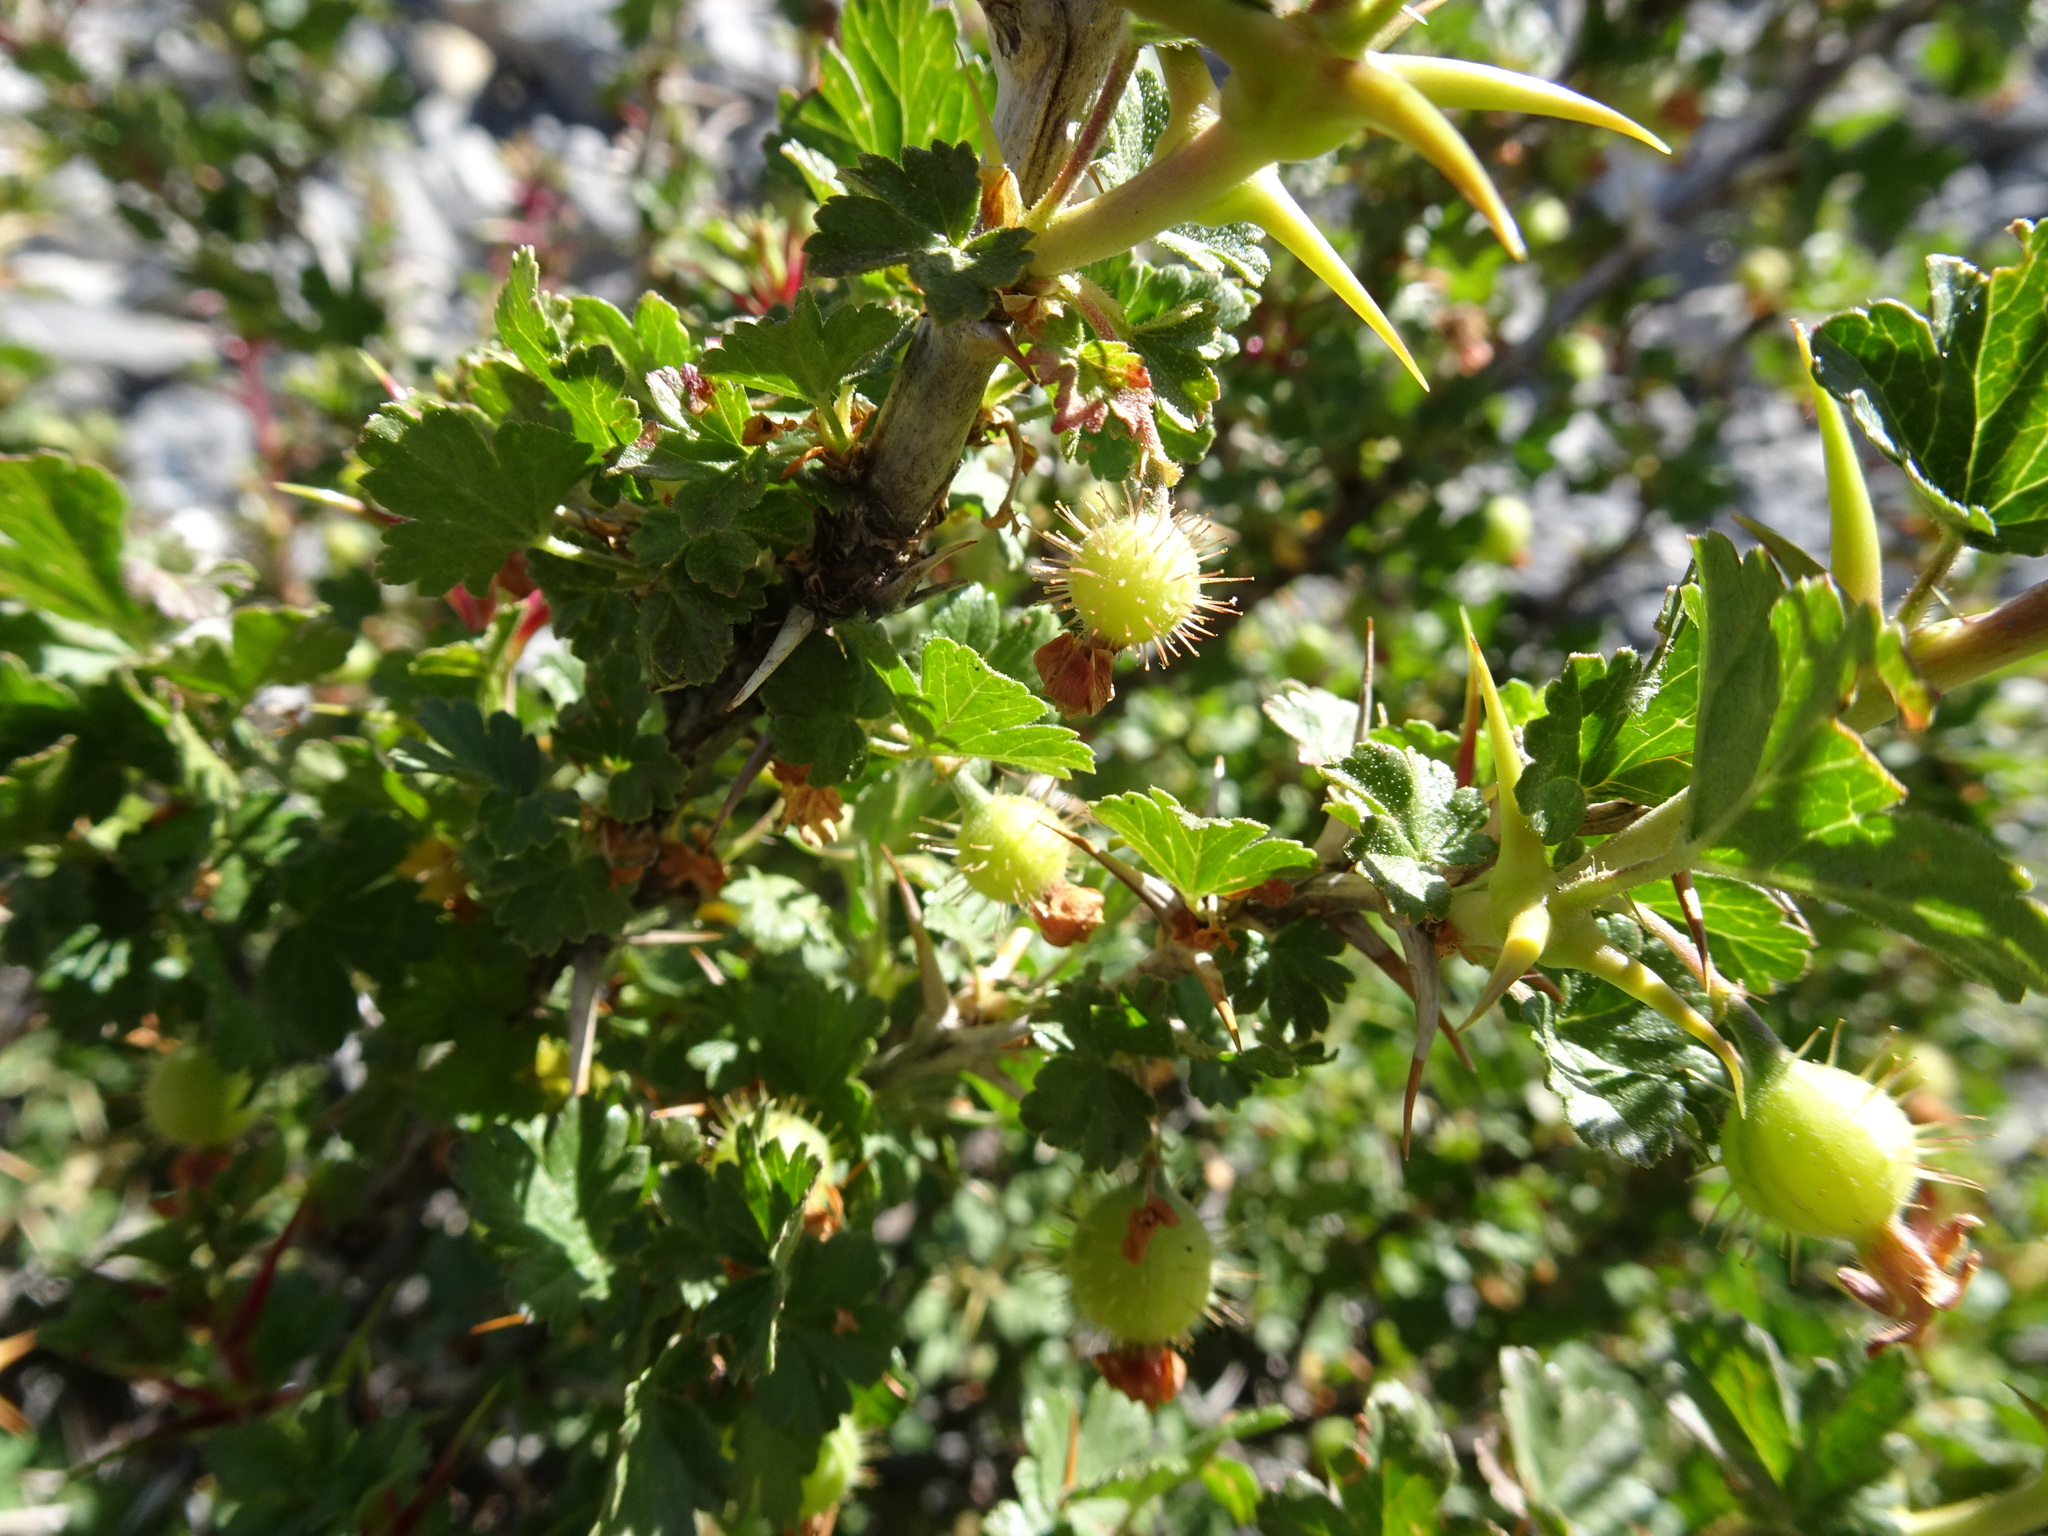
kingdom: Plantae
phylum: Tracheophyta
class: Magnoliopsida
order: Saxifragales
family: Grossulariaceae
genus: Ribes
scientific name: Ribes uva-crispa
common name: Gooseberry
